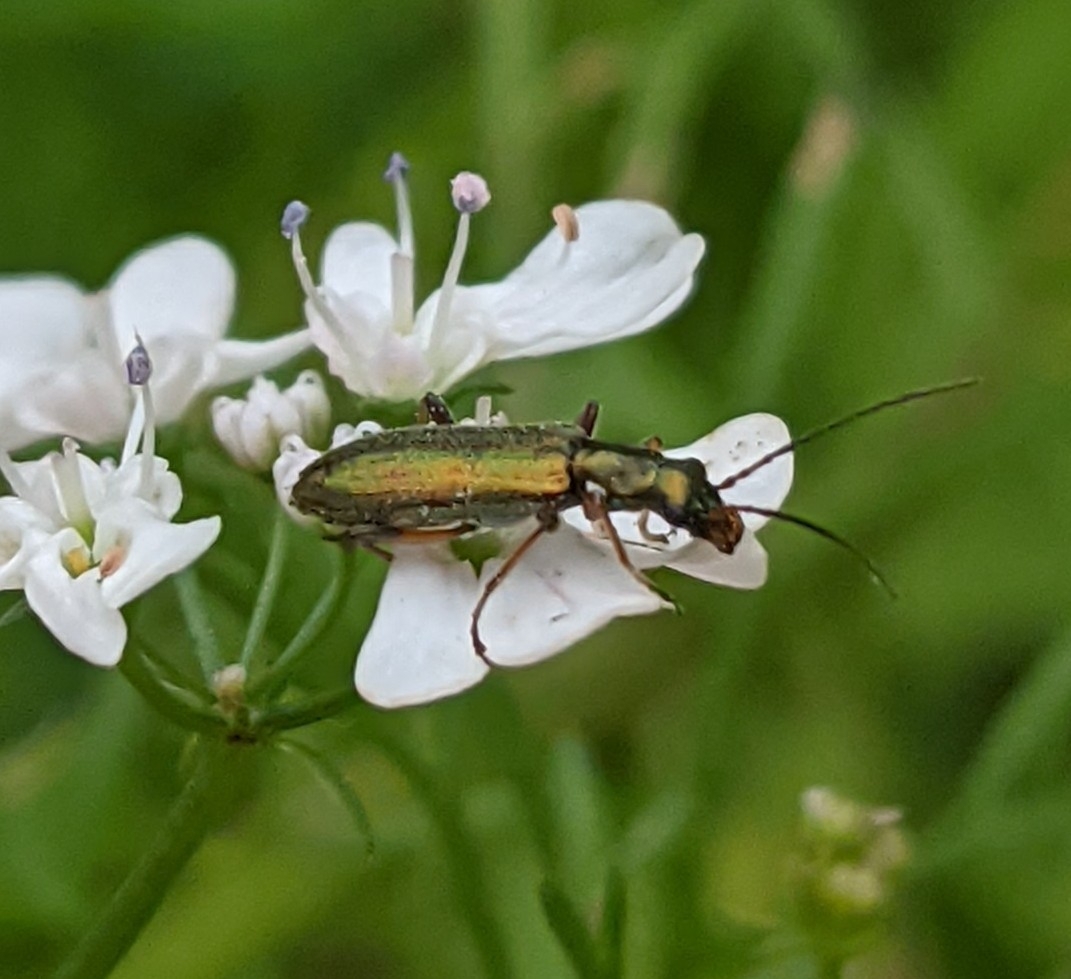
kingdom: Animalia
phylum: Arthropoda
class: Insecta
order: Coleoptera
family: Oedemeridae
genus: Chrysanthia
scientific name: Chrysanthia geniculata
